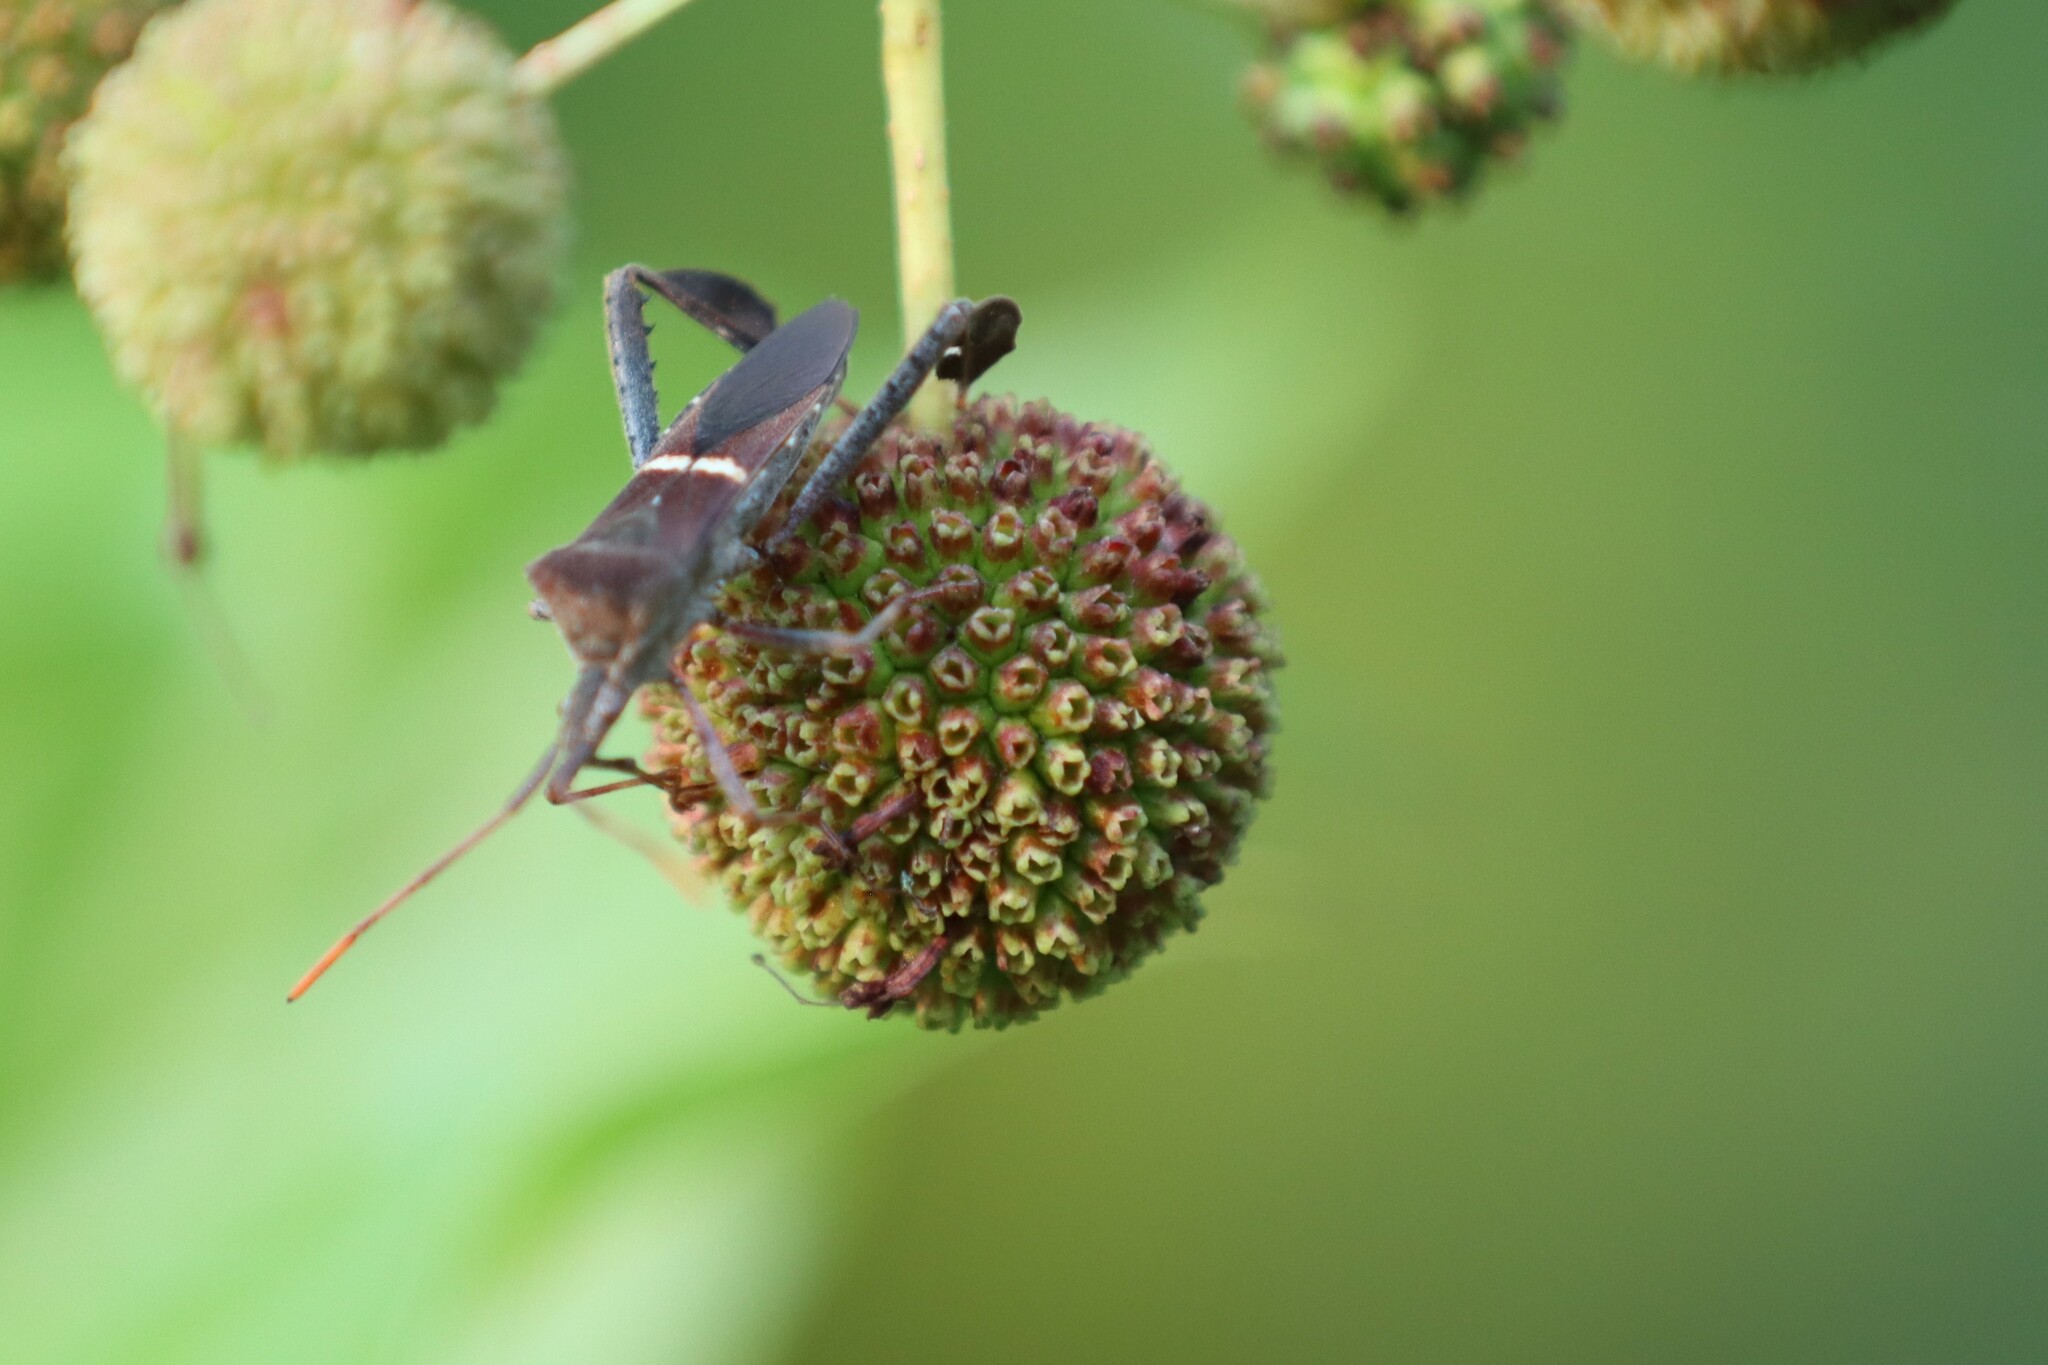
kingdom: Animalia
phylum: Arthropoda
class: Insecta
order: Hemiptera
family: Coreidae
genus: Leptoglossus
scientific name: Leptoglossus phyllopus
